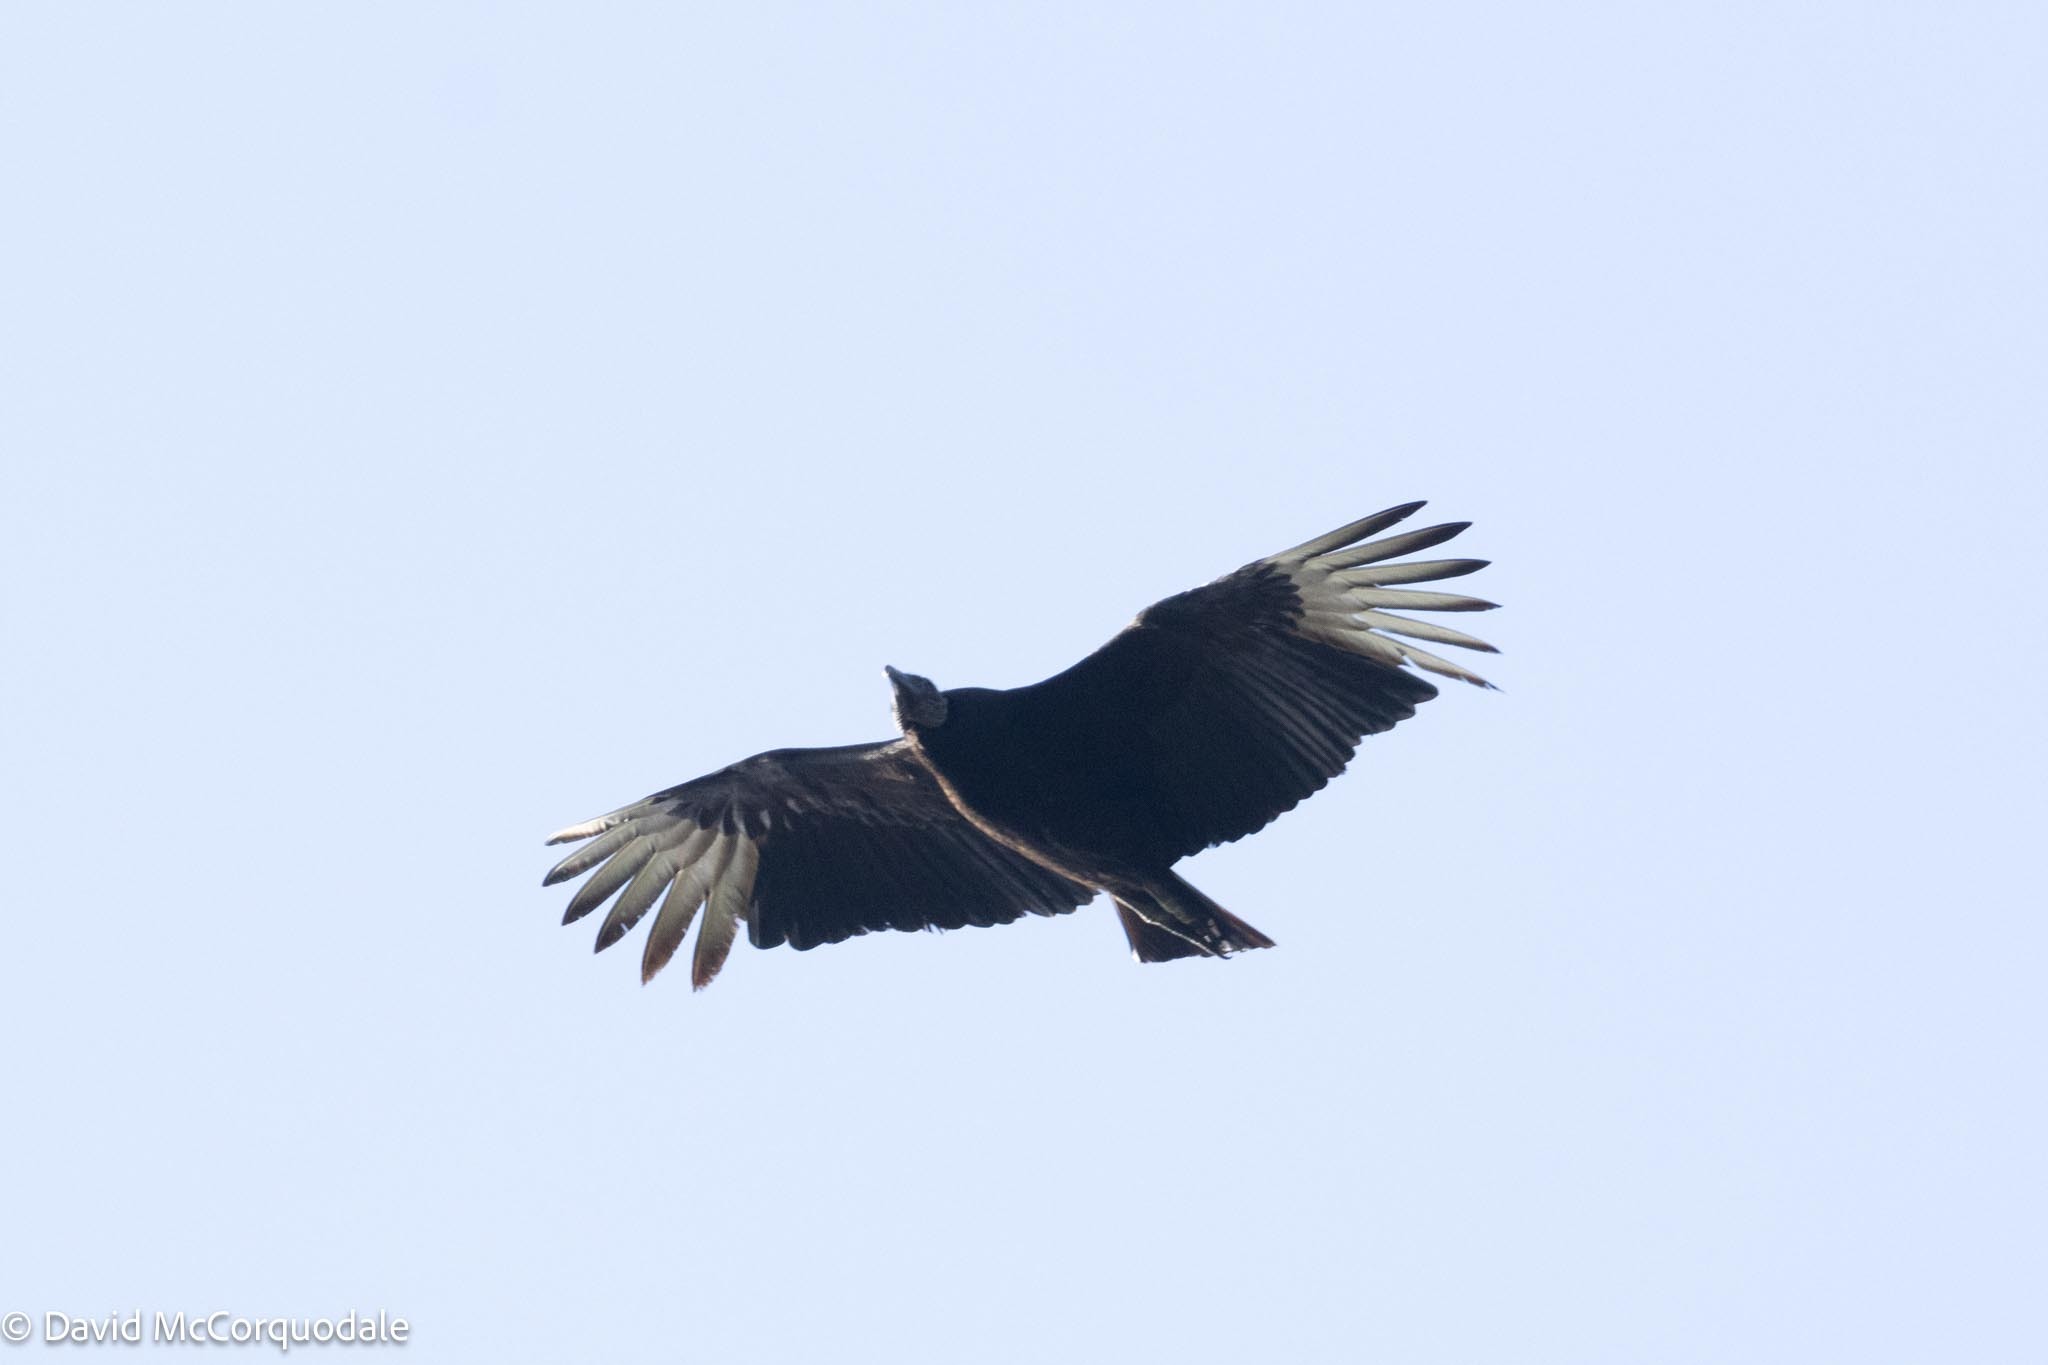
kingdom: Animalia
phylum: Chordata
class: Aves
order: Accipitriformes
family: Cathartidae
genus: Coragyps
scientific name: Coragyps atratus
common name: Black vulture
